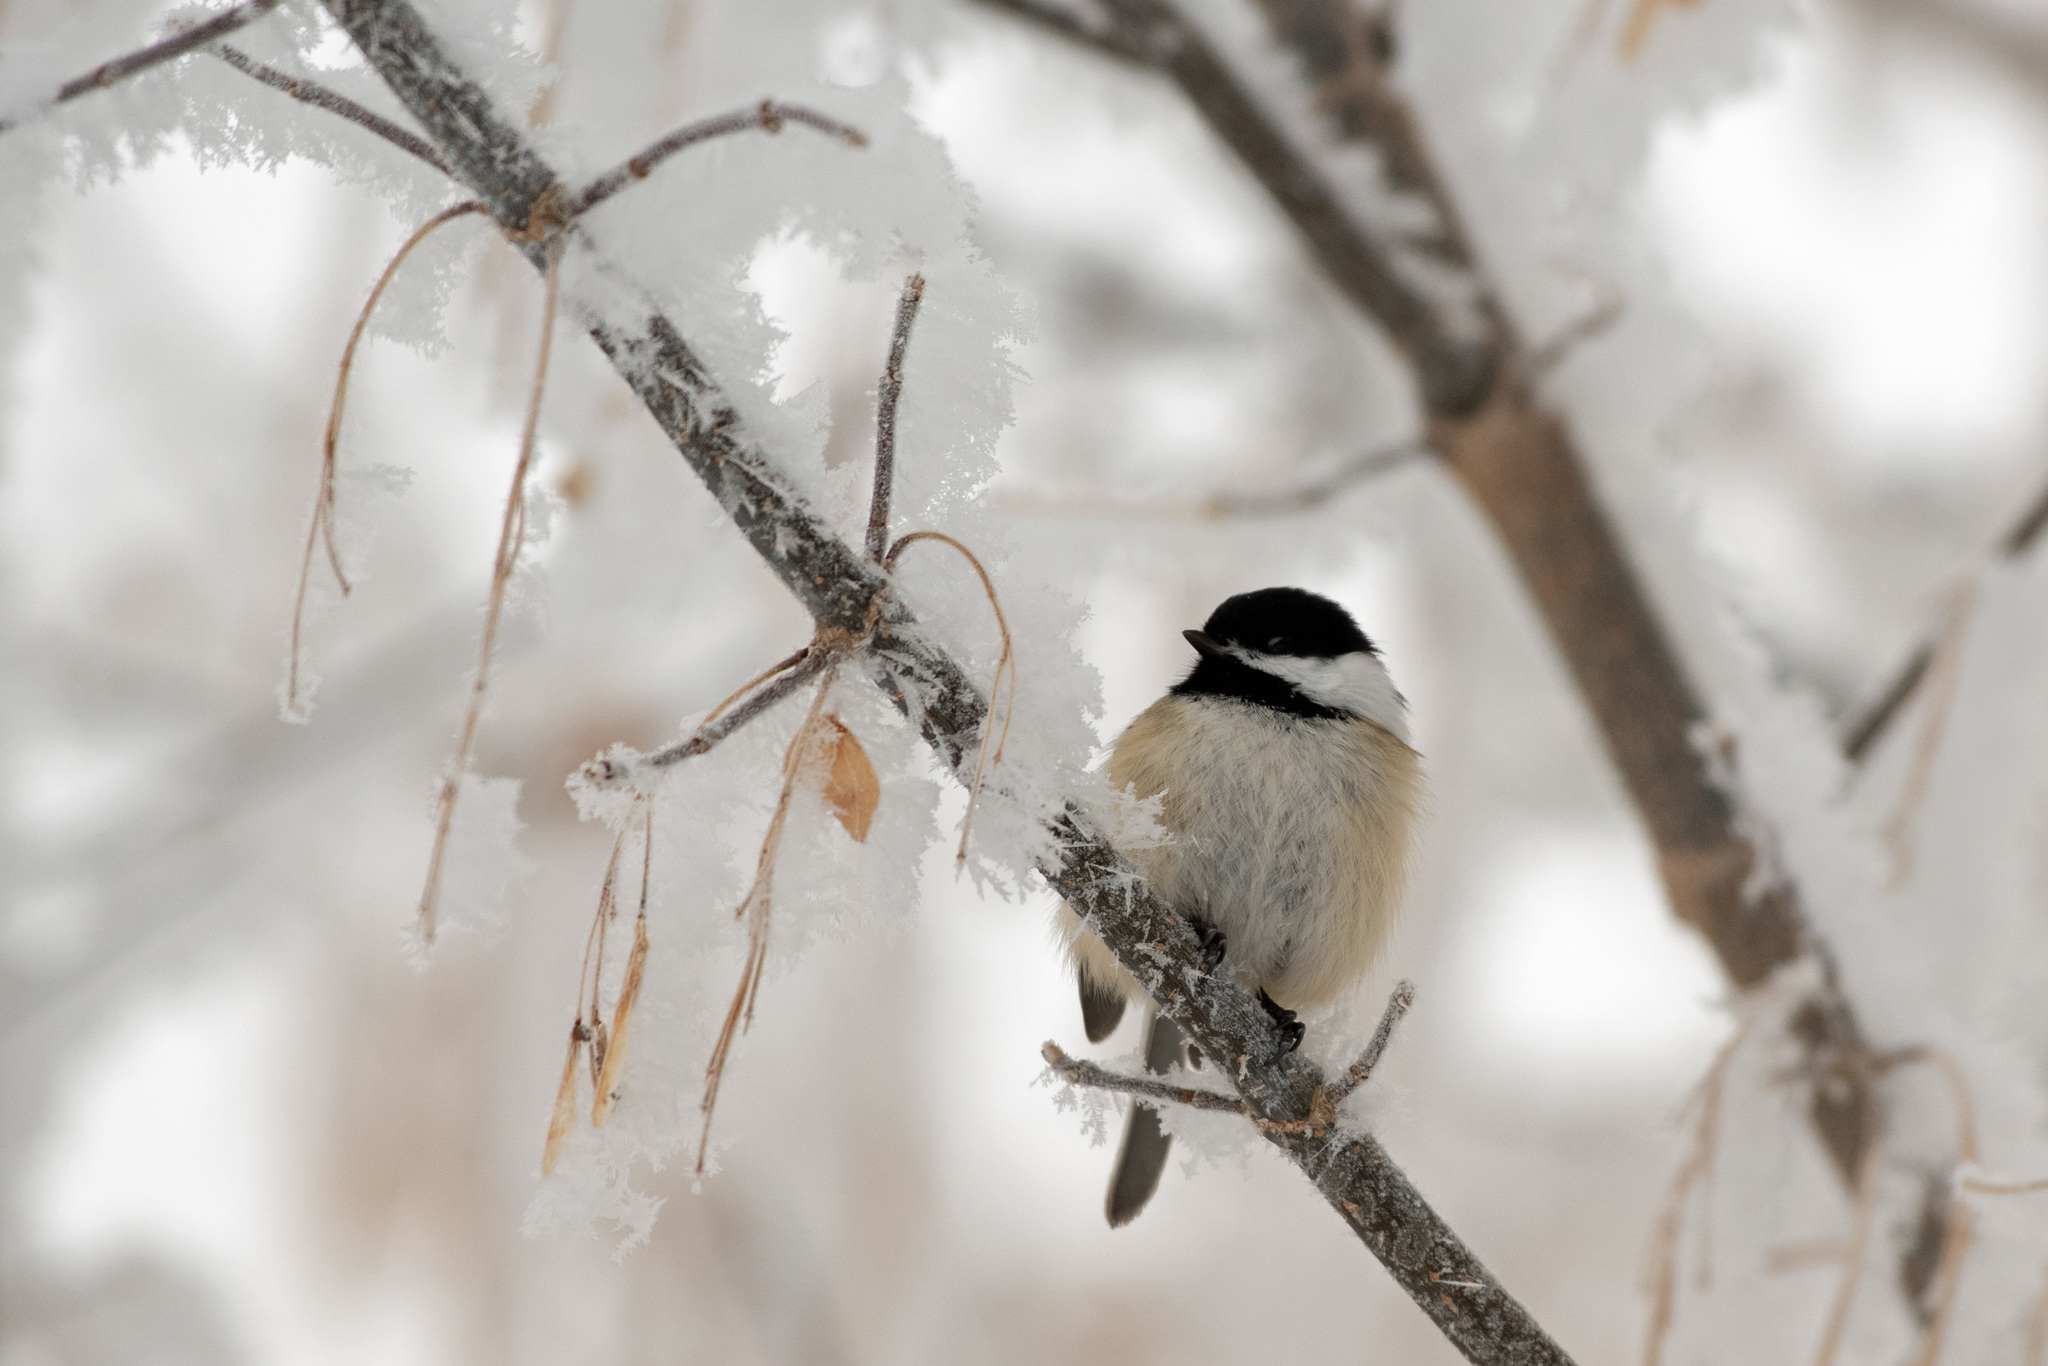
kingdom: Animalia
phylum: Chordata
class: Aves
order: Passeriformes
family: Paridae
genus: Poecile
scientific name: Poecile atricapillus
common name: Black-capped chickadee
